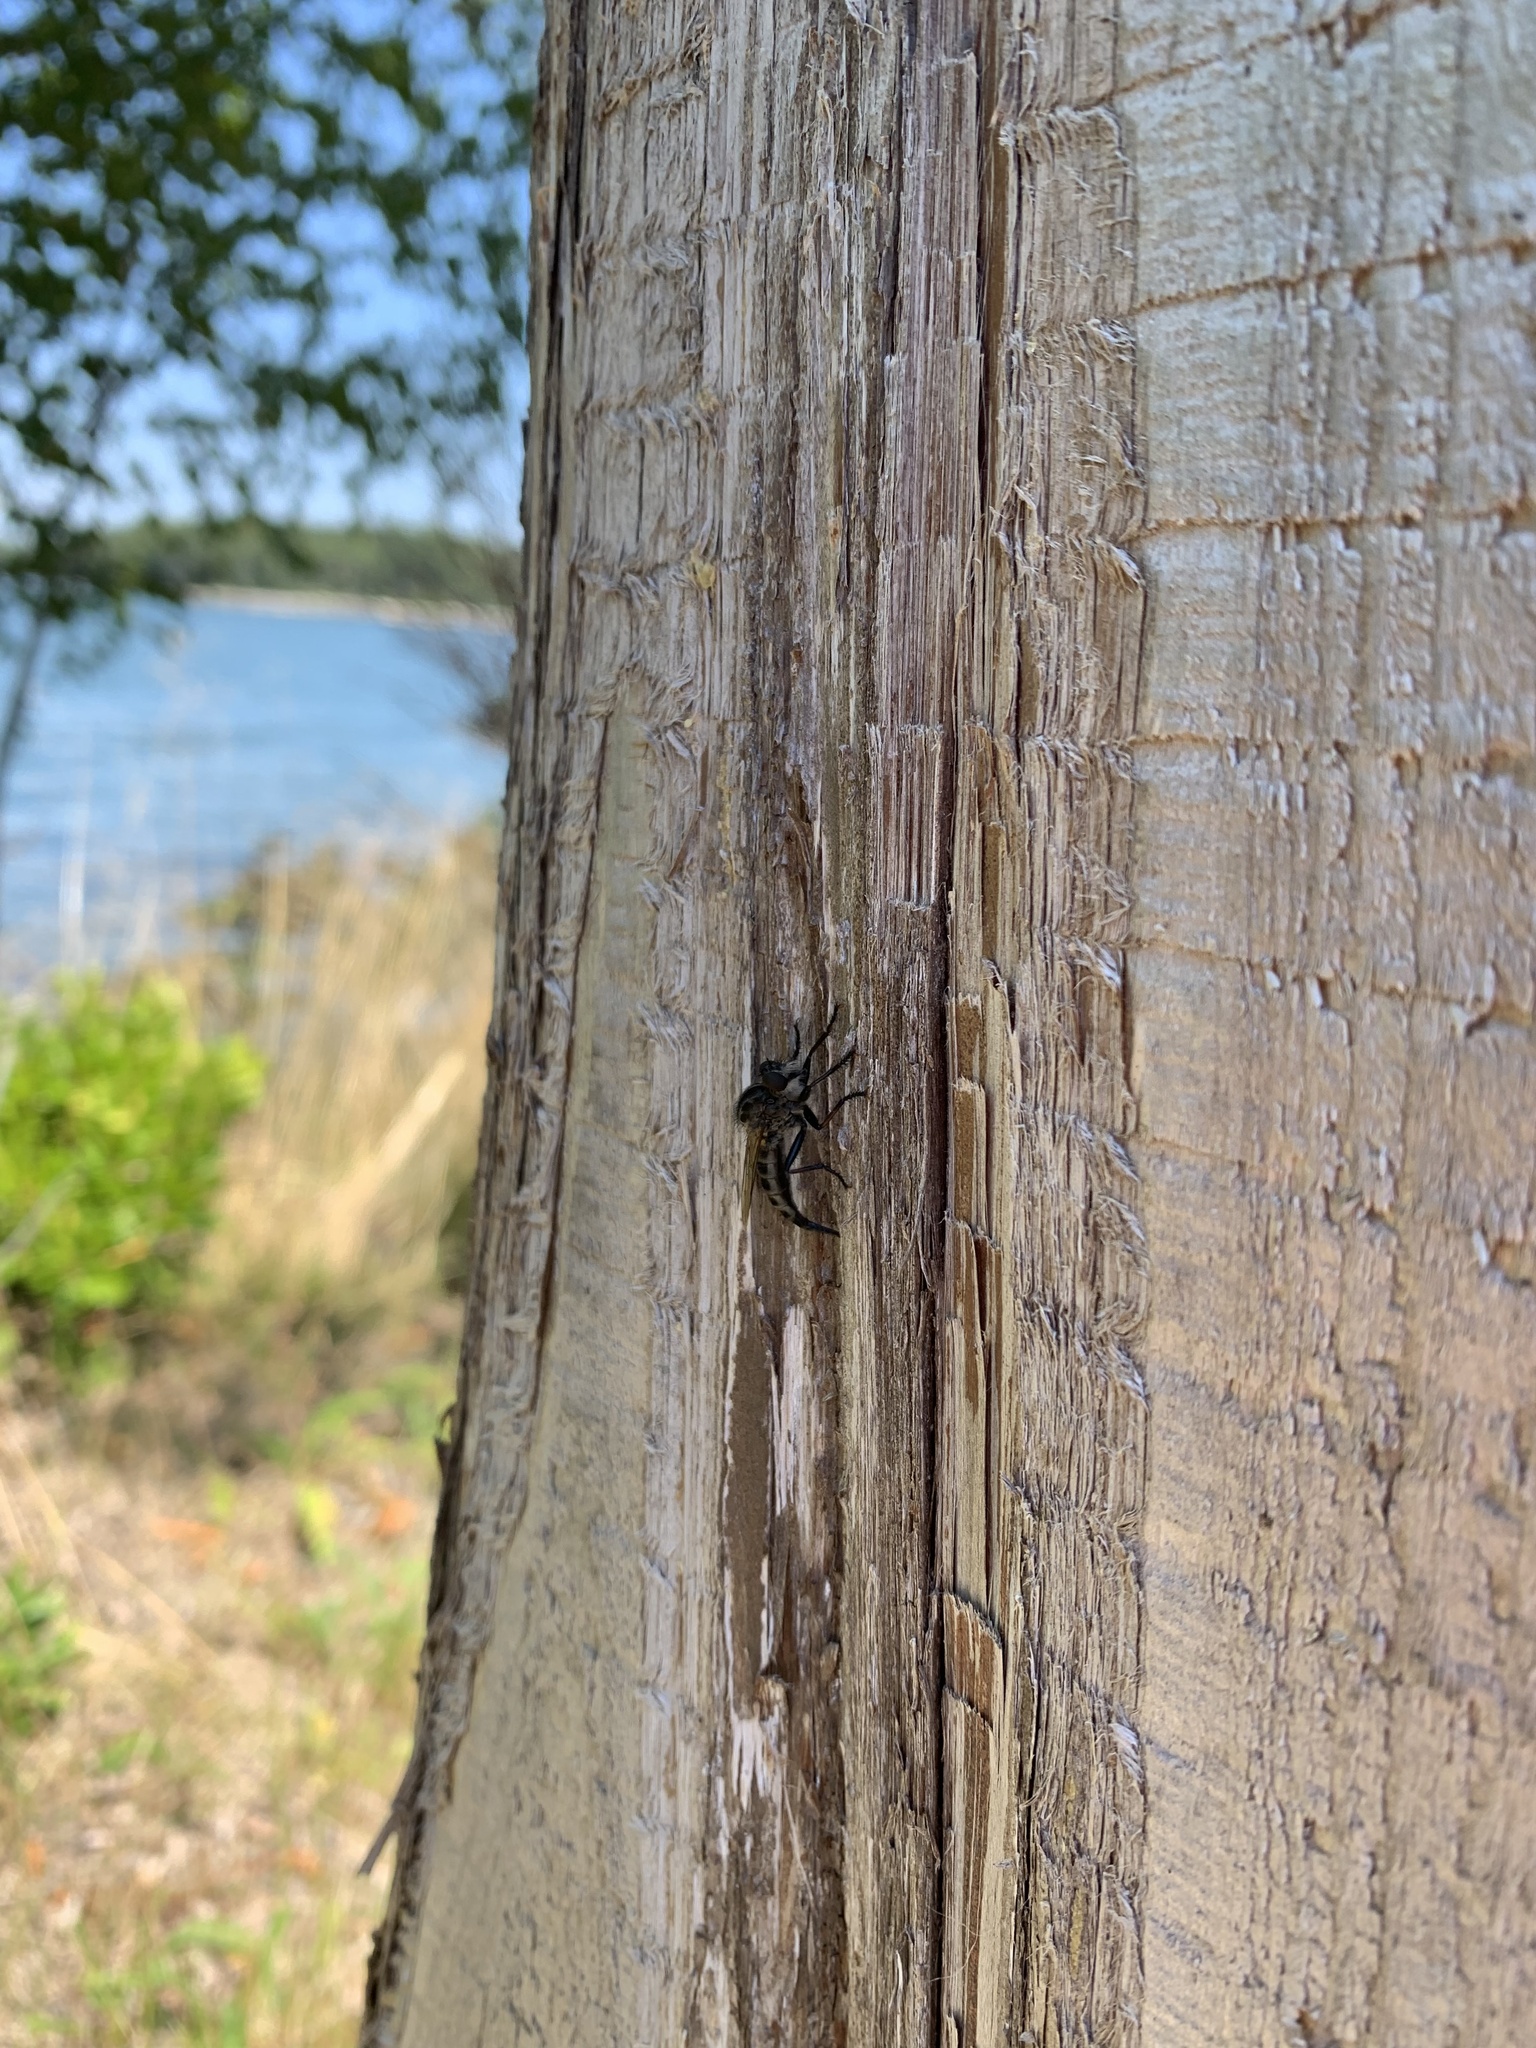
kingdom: Animalia
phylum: Arthropoda
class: Insecta
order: Diptera
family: Asilidae
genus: Efferia
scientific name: Efferia aestuans
